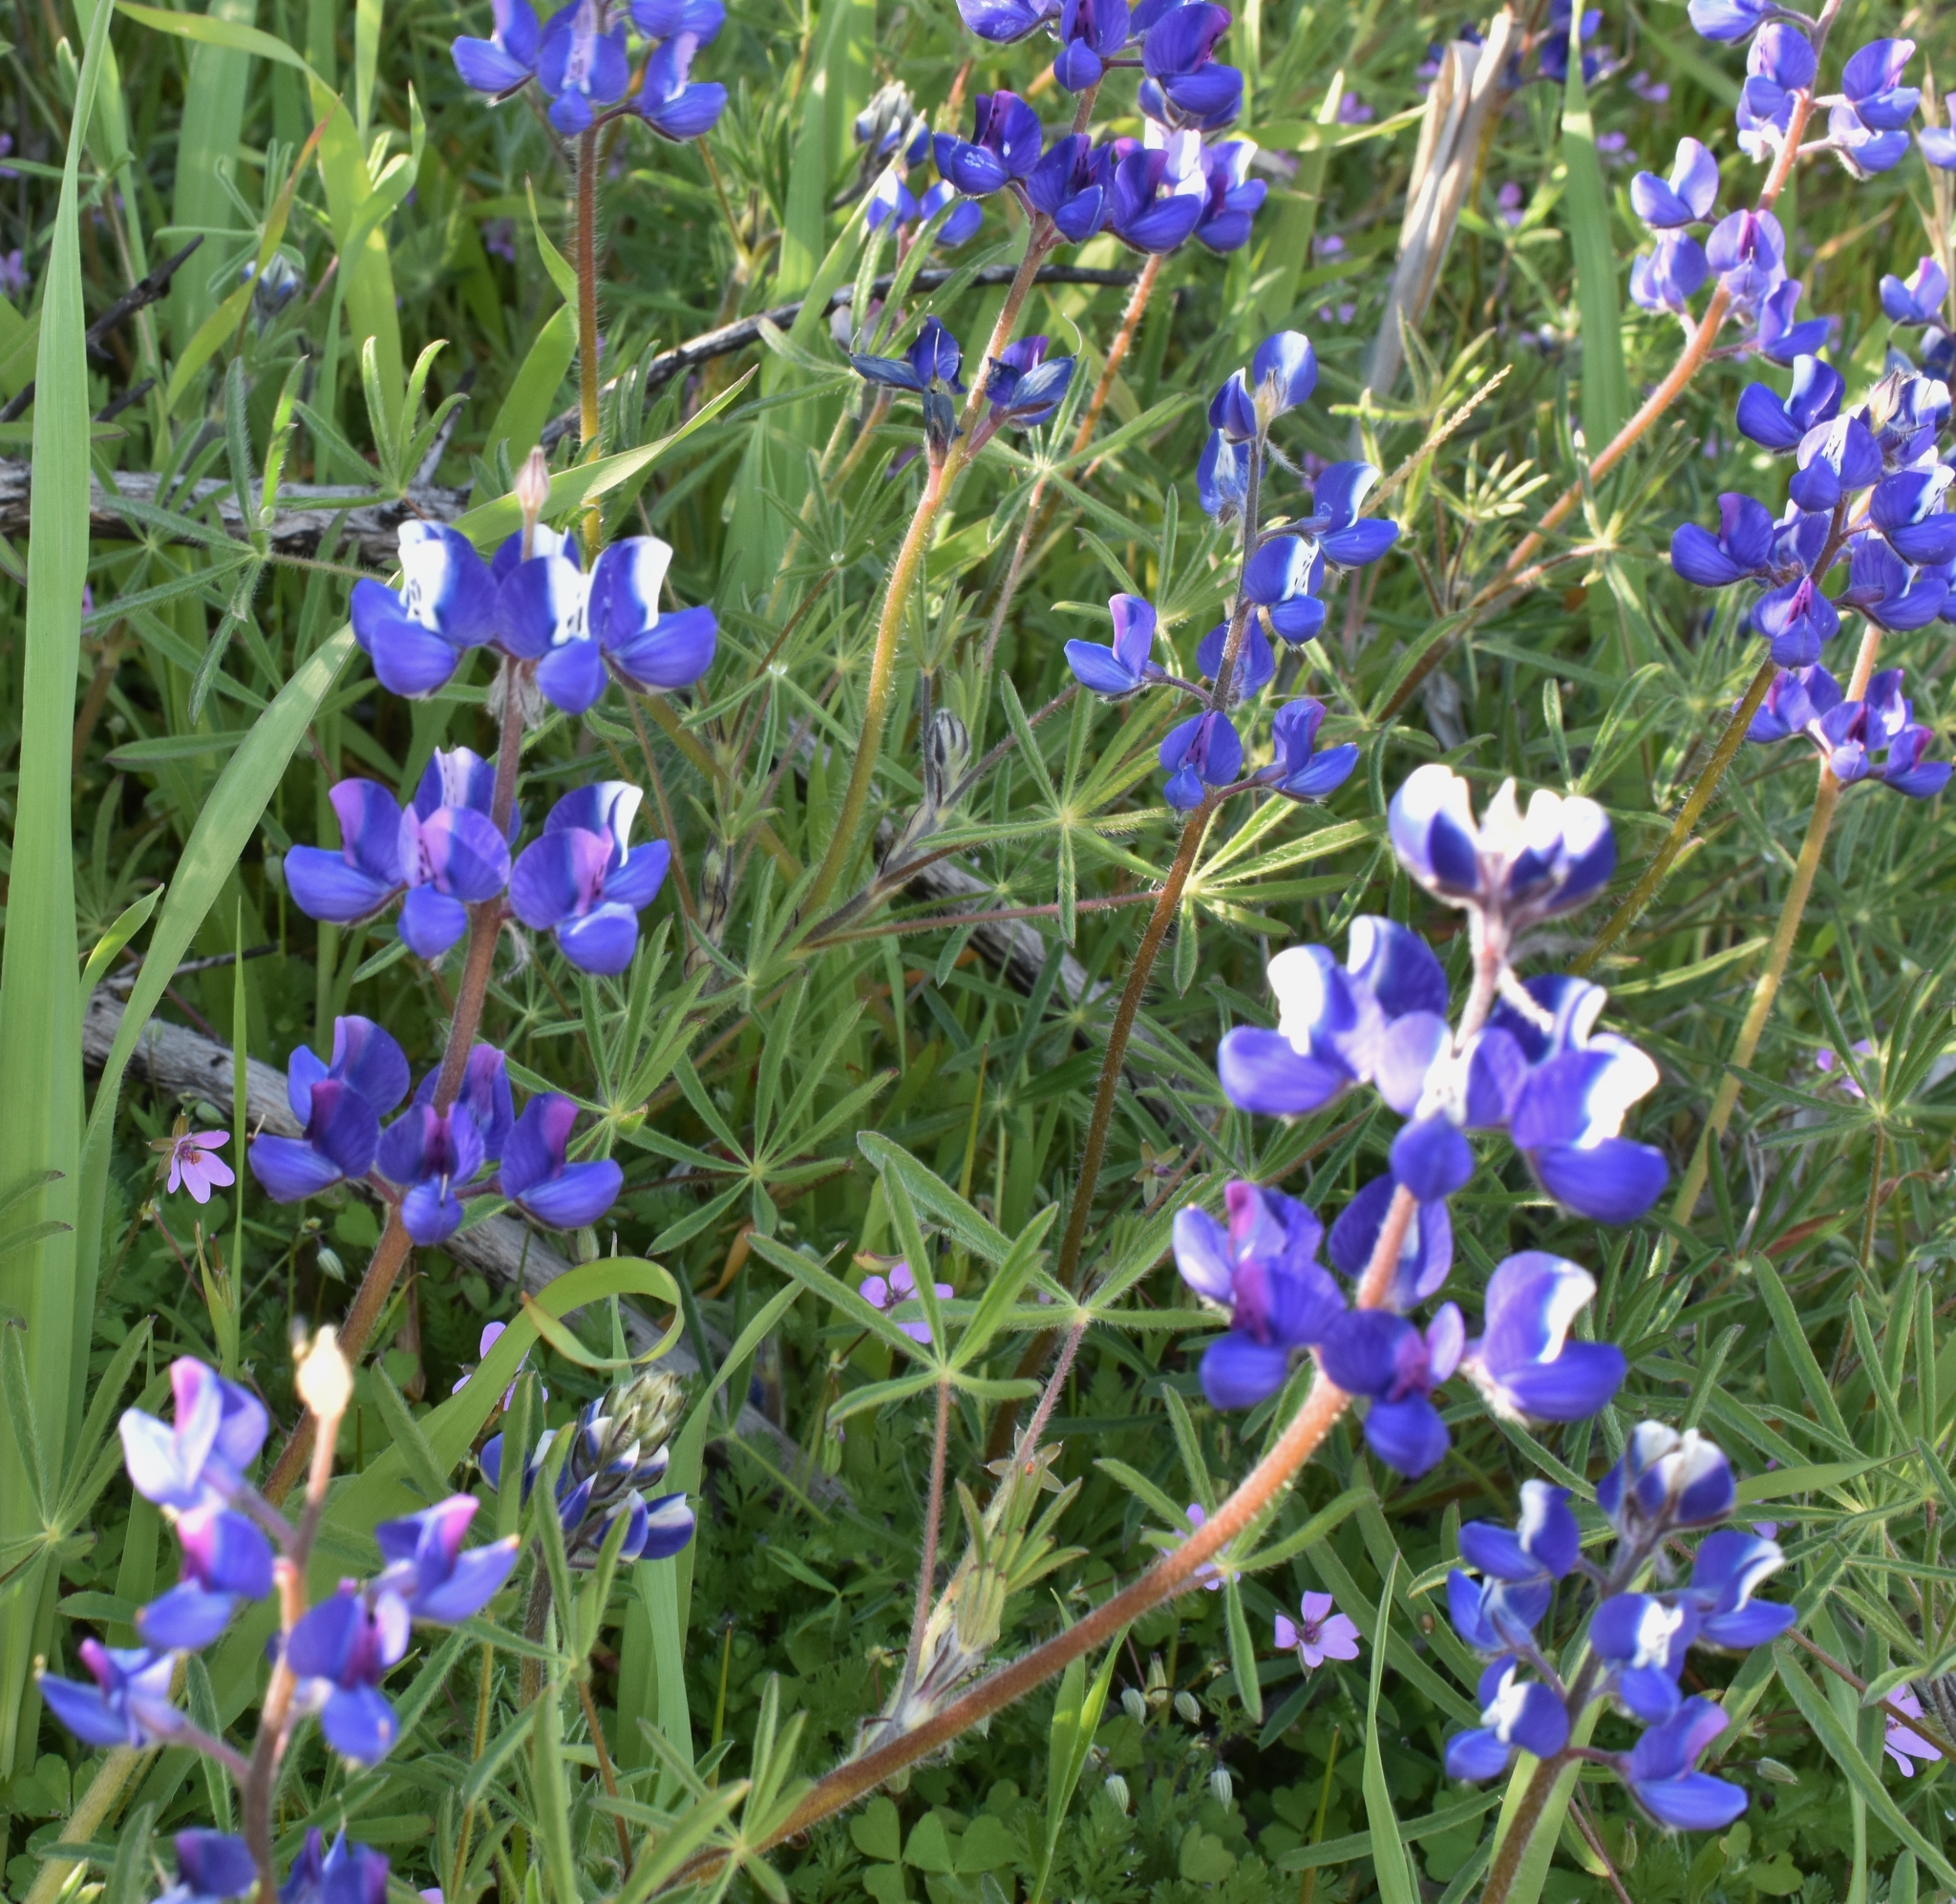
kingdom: Plantae
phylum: Tracheophyta
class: Magnoliopsida
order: Fabales
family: Fabaceae
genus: Lupinus
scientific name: Lupinus nanus
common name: Orean blue lupin
